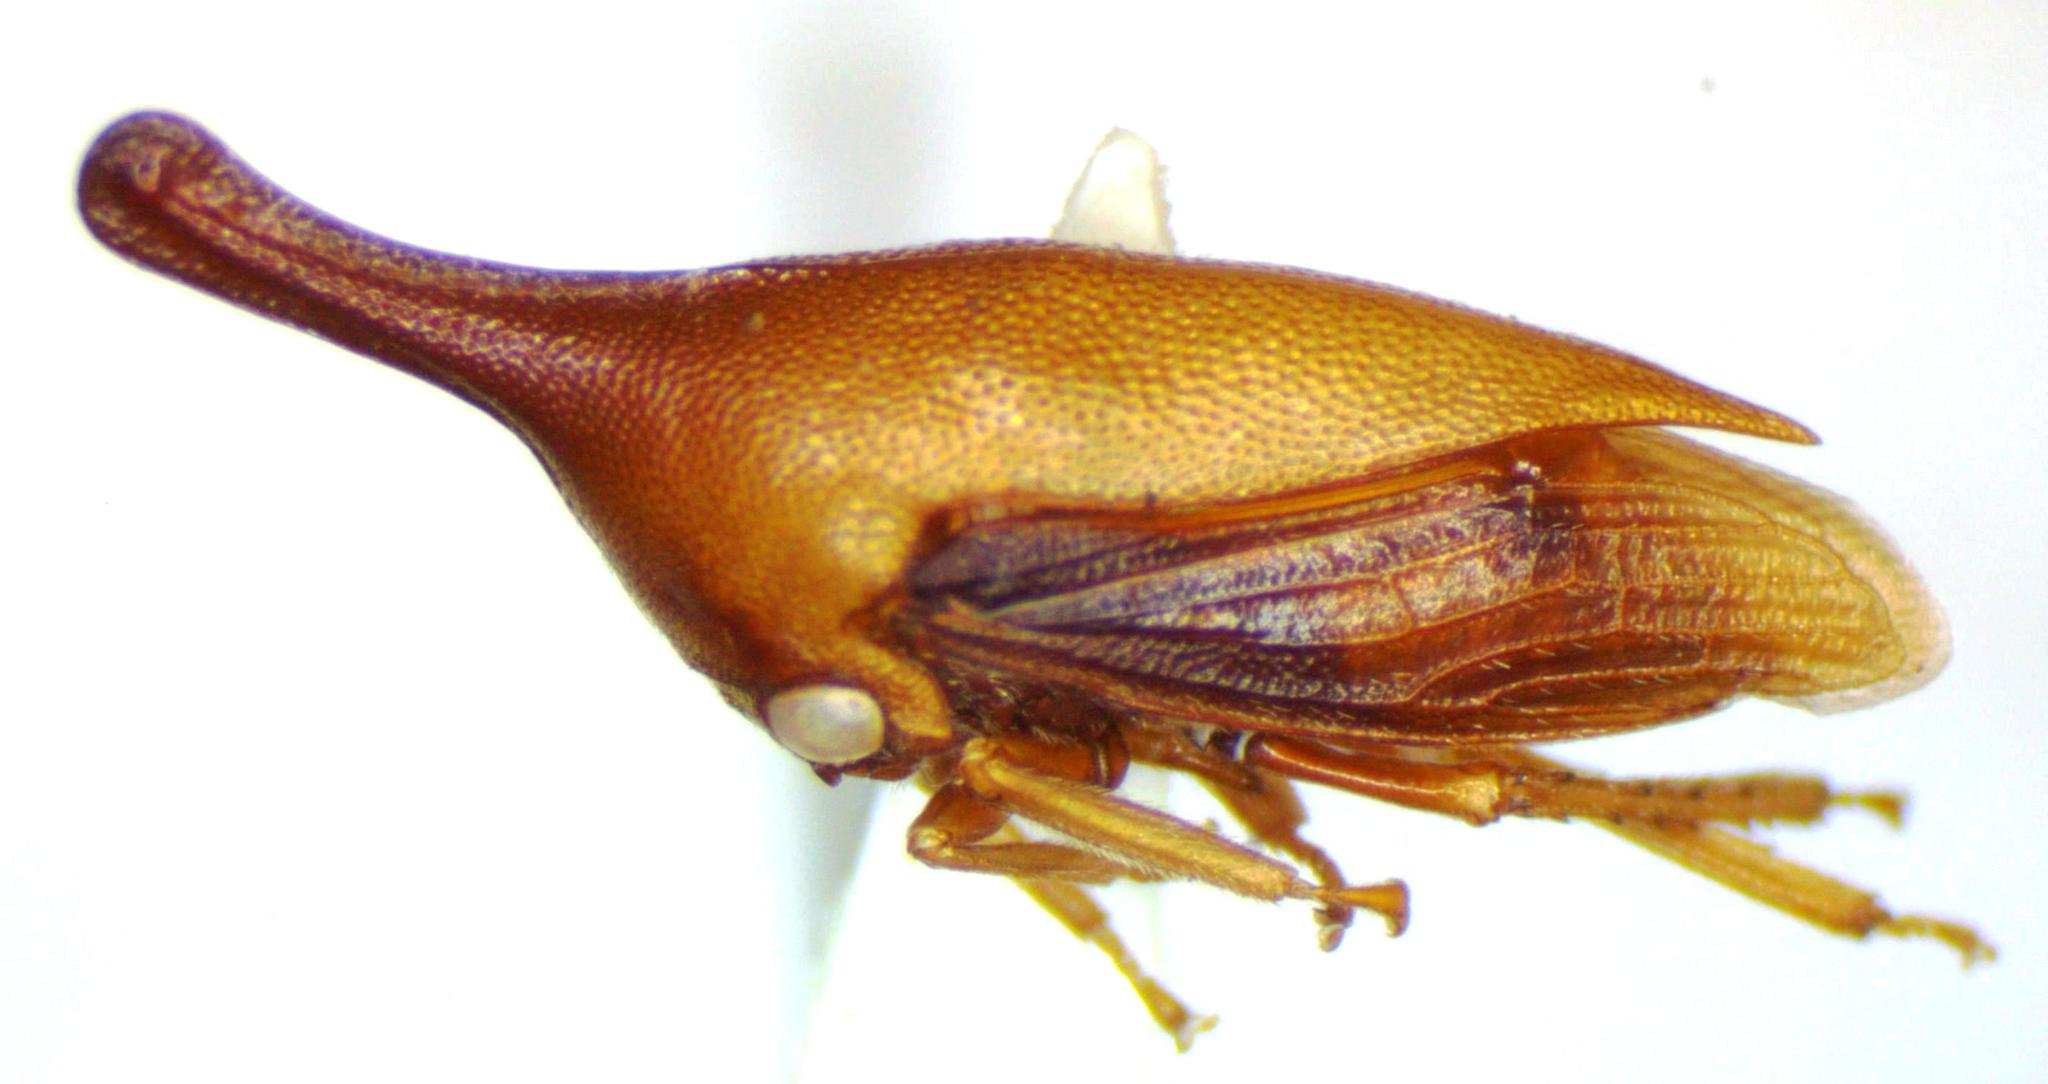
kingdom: Animalia
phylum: Arthropoda
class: Insecta
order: Hemiptera
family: Membracidae
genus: Guayaquila
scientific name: Guayaquila gracilicornis
